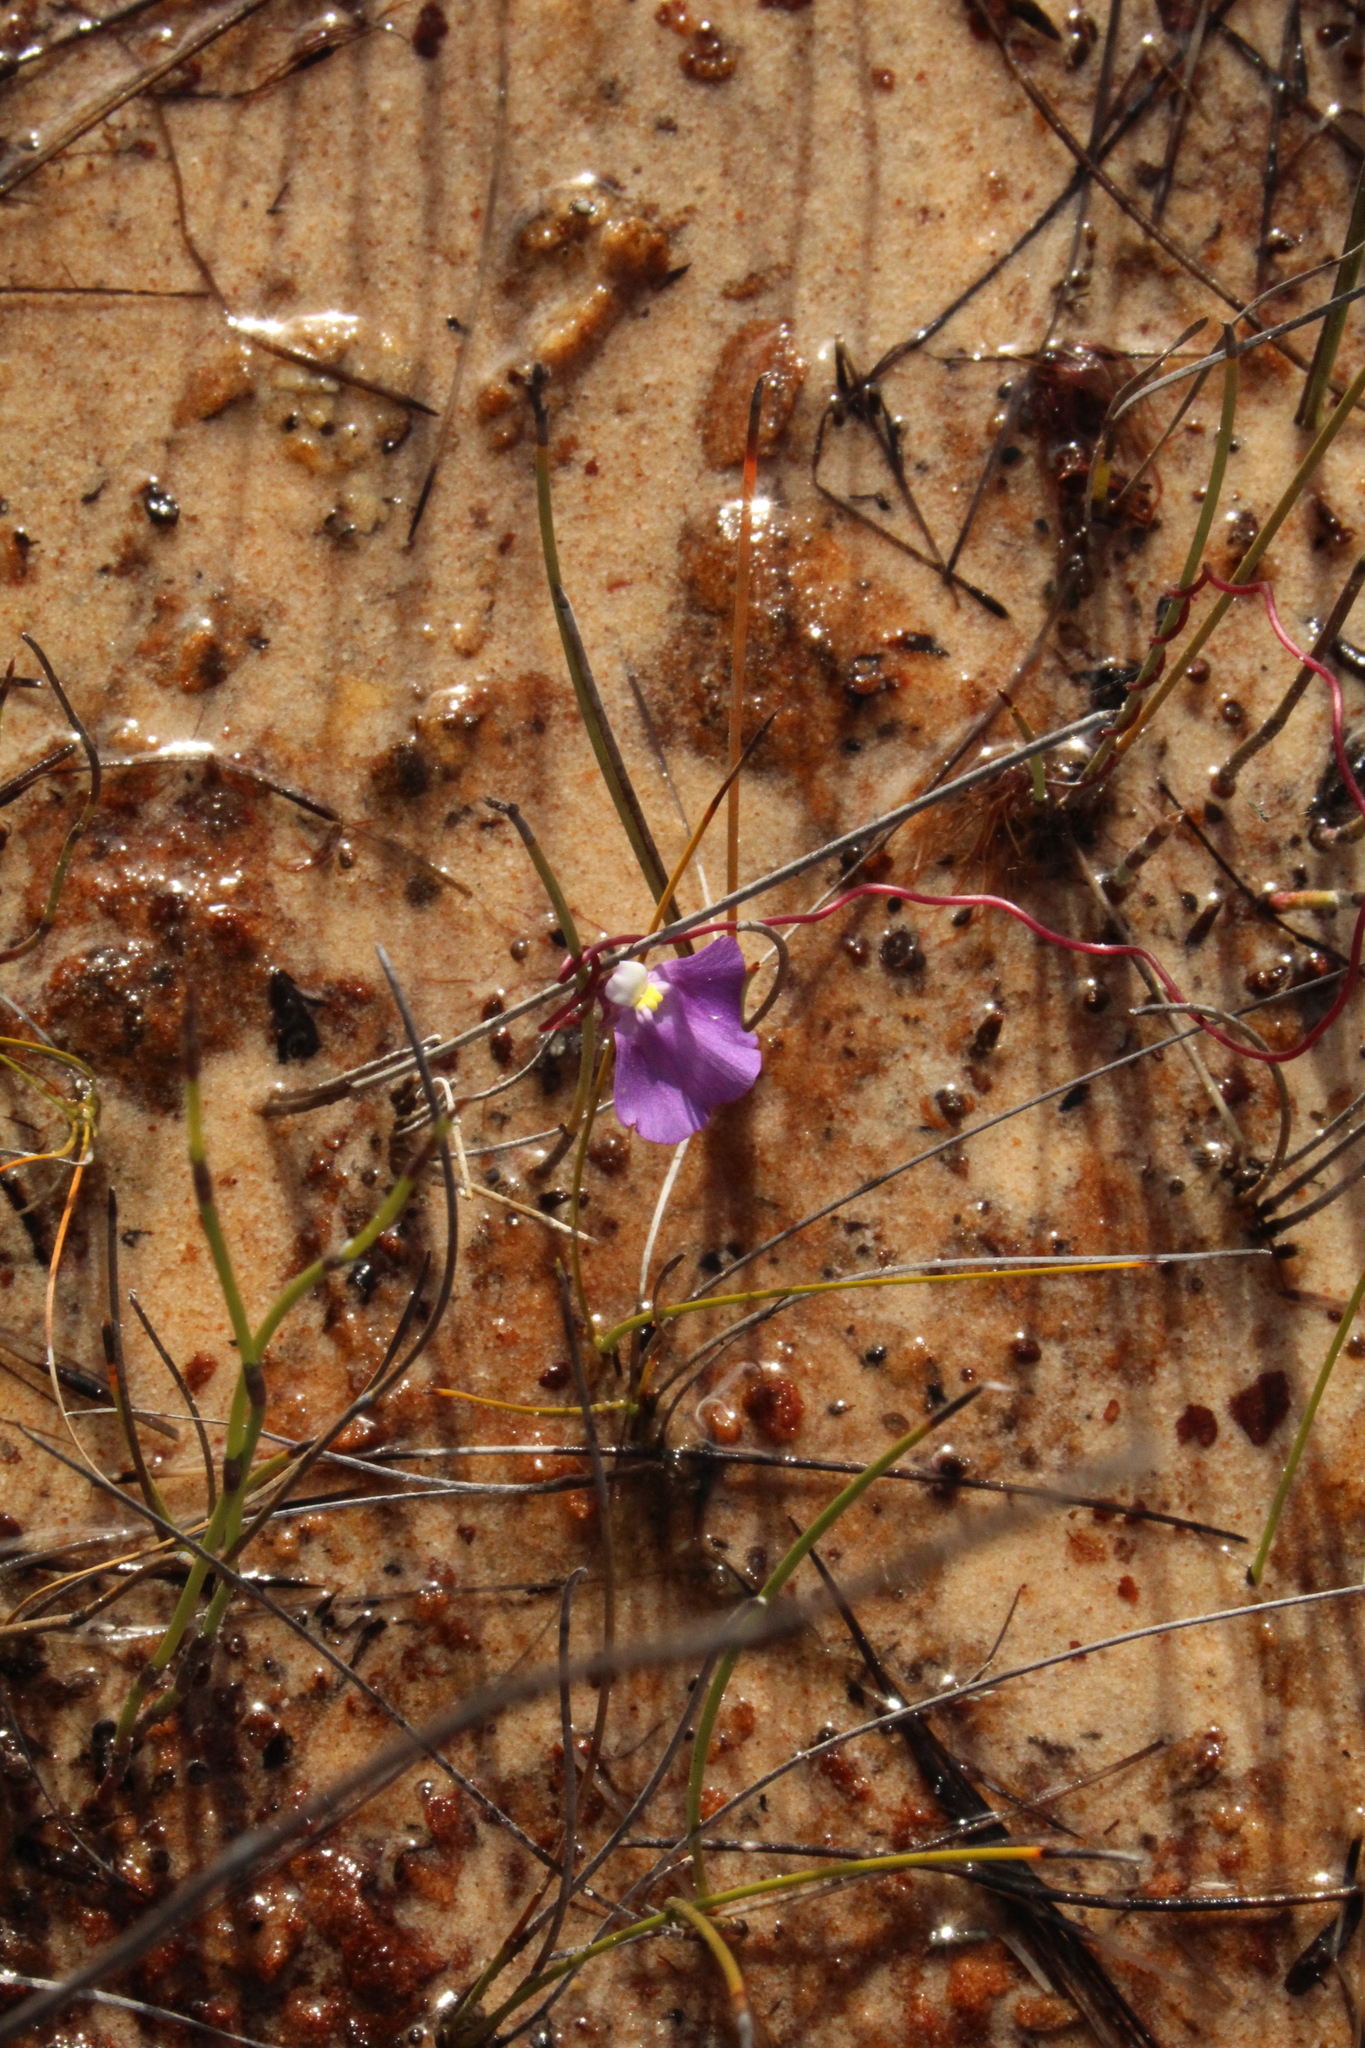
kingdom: Plantae
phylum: Tracheophyta
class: Magnoliopsida
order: Lamiales
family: Lentibulariaceae
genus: Utricularia
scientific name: Utricularia volubilis
